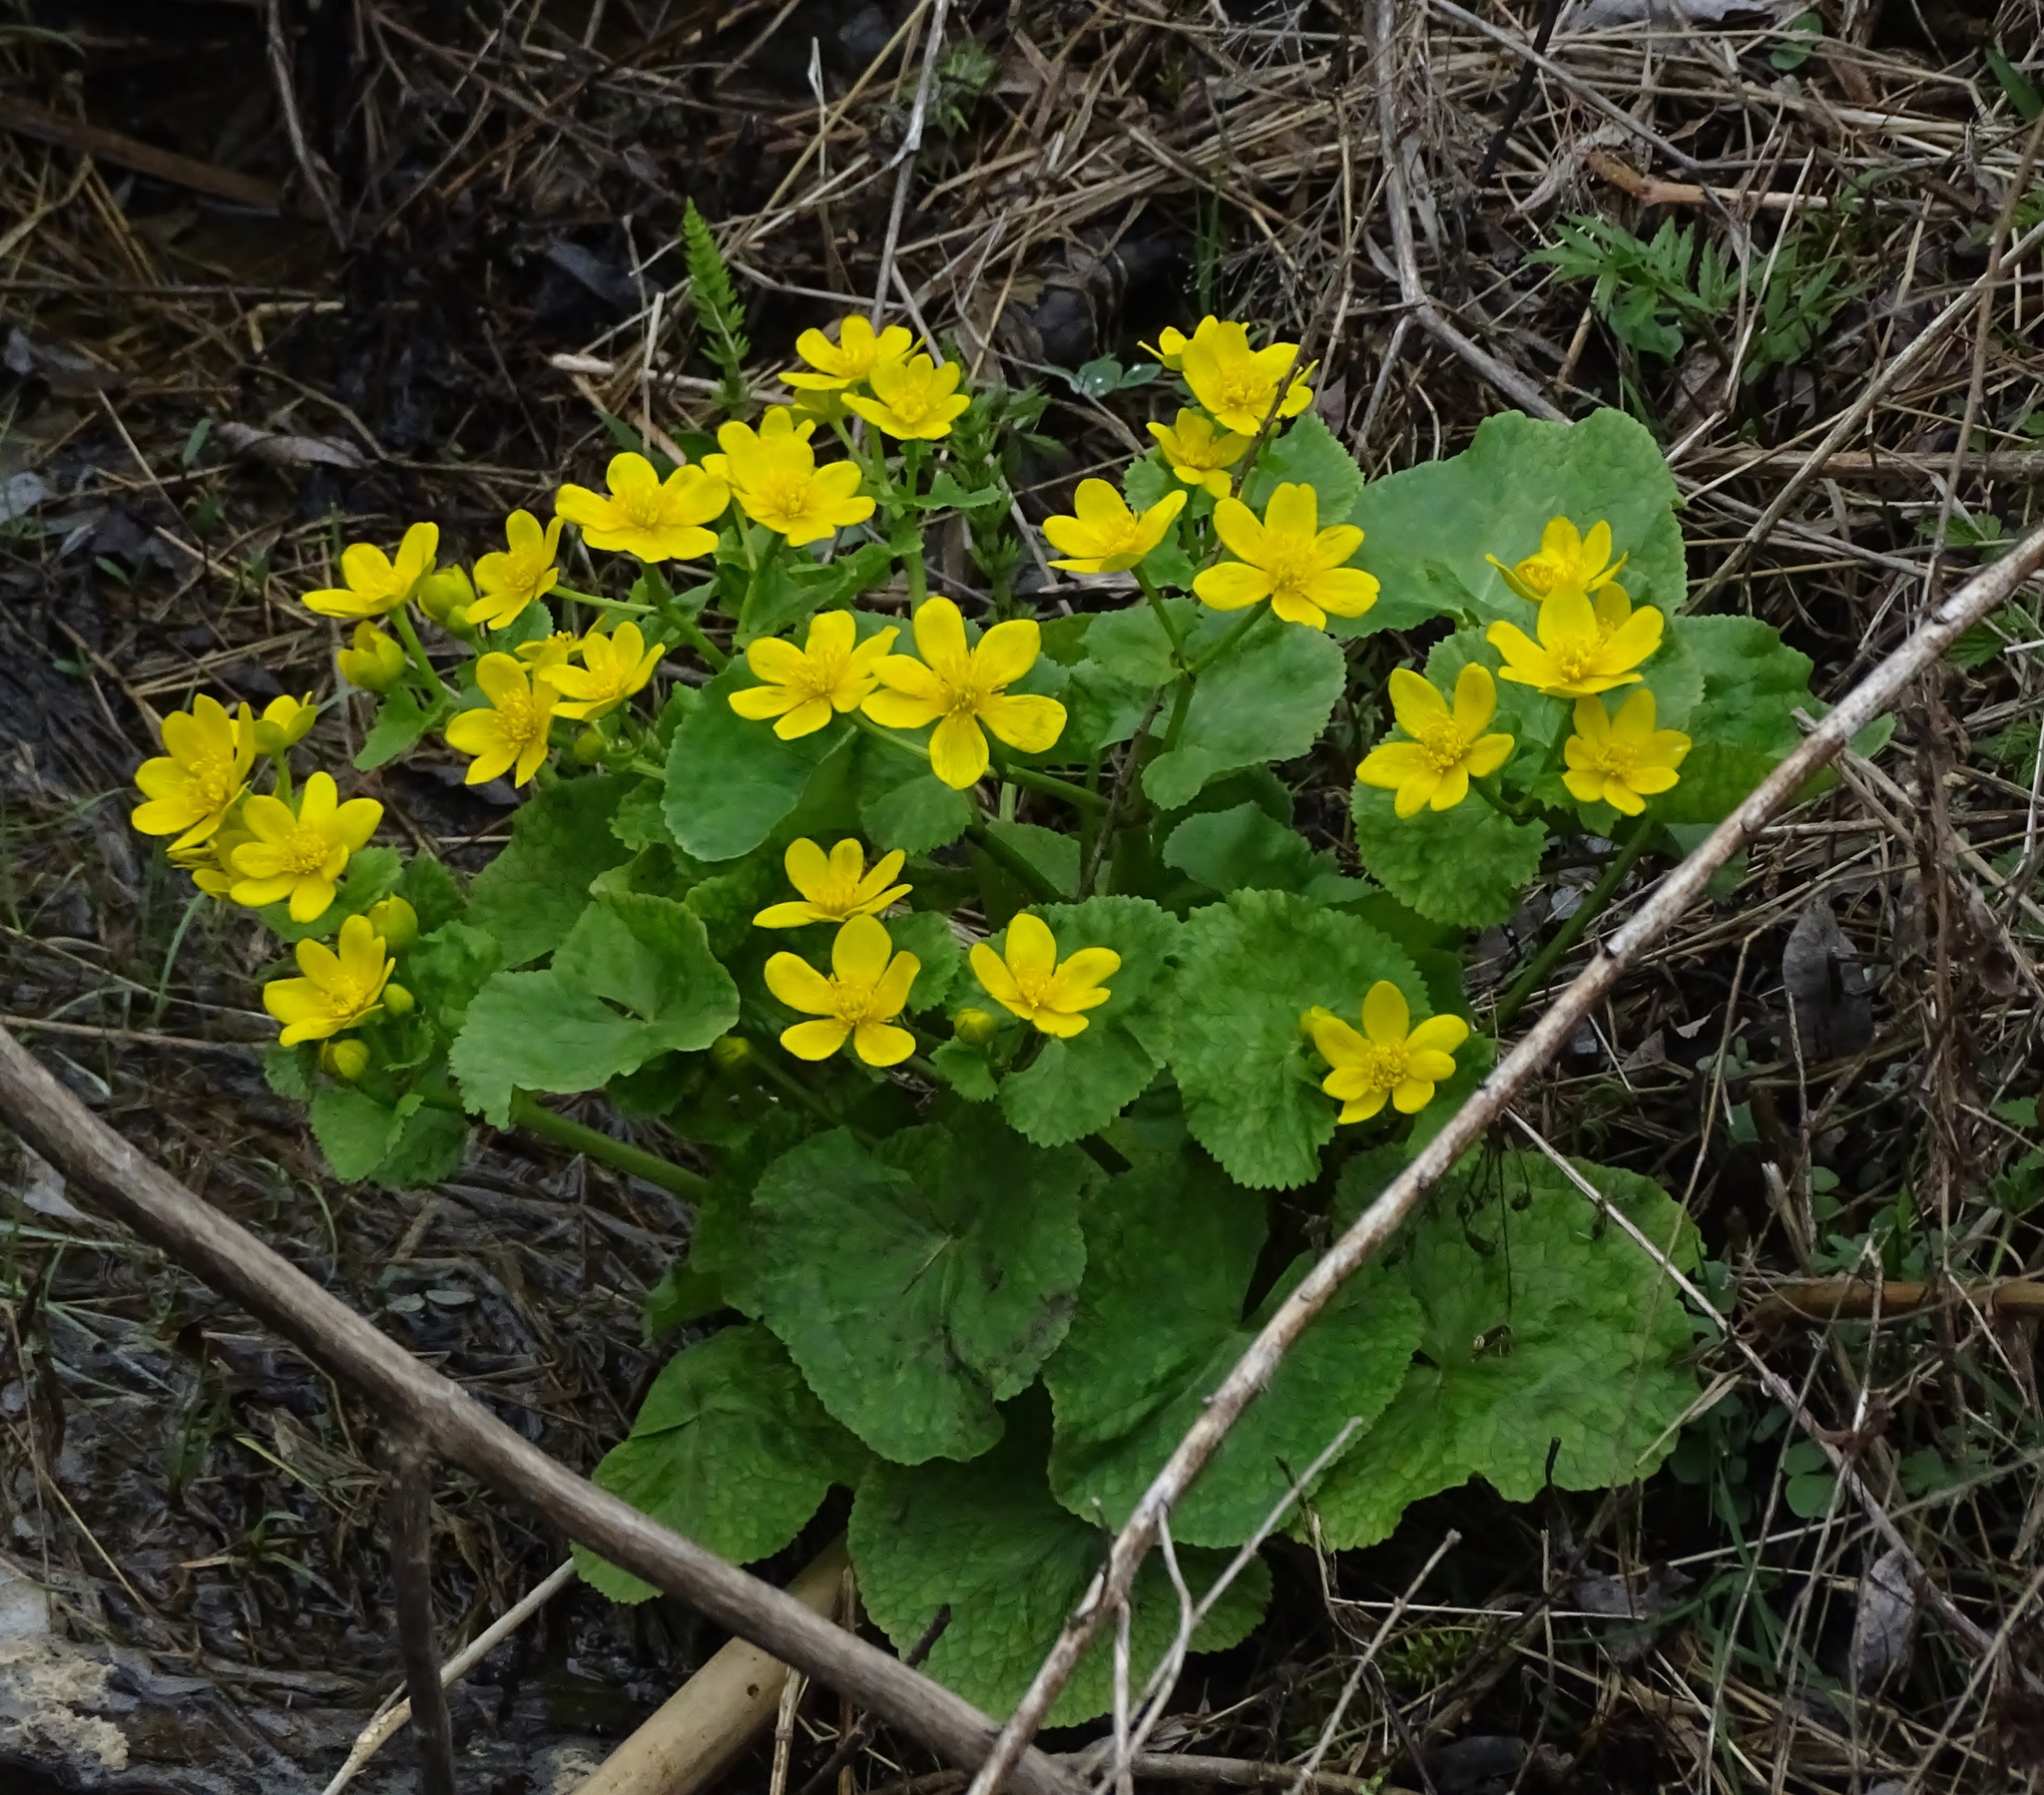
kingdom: Plantae
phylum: Tracheophyta
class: Magnoliopsida
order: Ranunculales
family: Ranunculaceae
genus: Caltha
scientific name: Caltha palustris
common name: Marsh marigold
